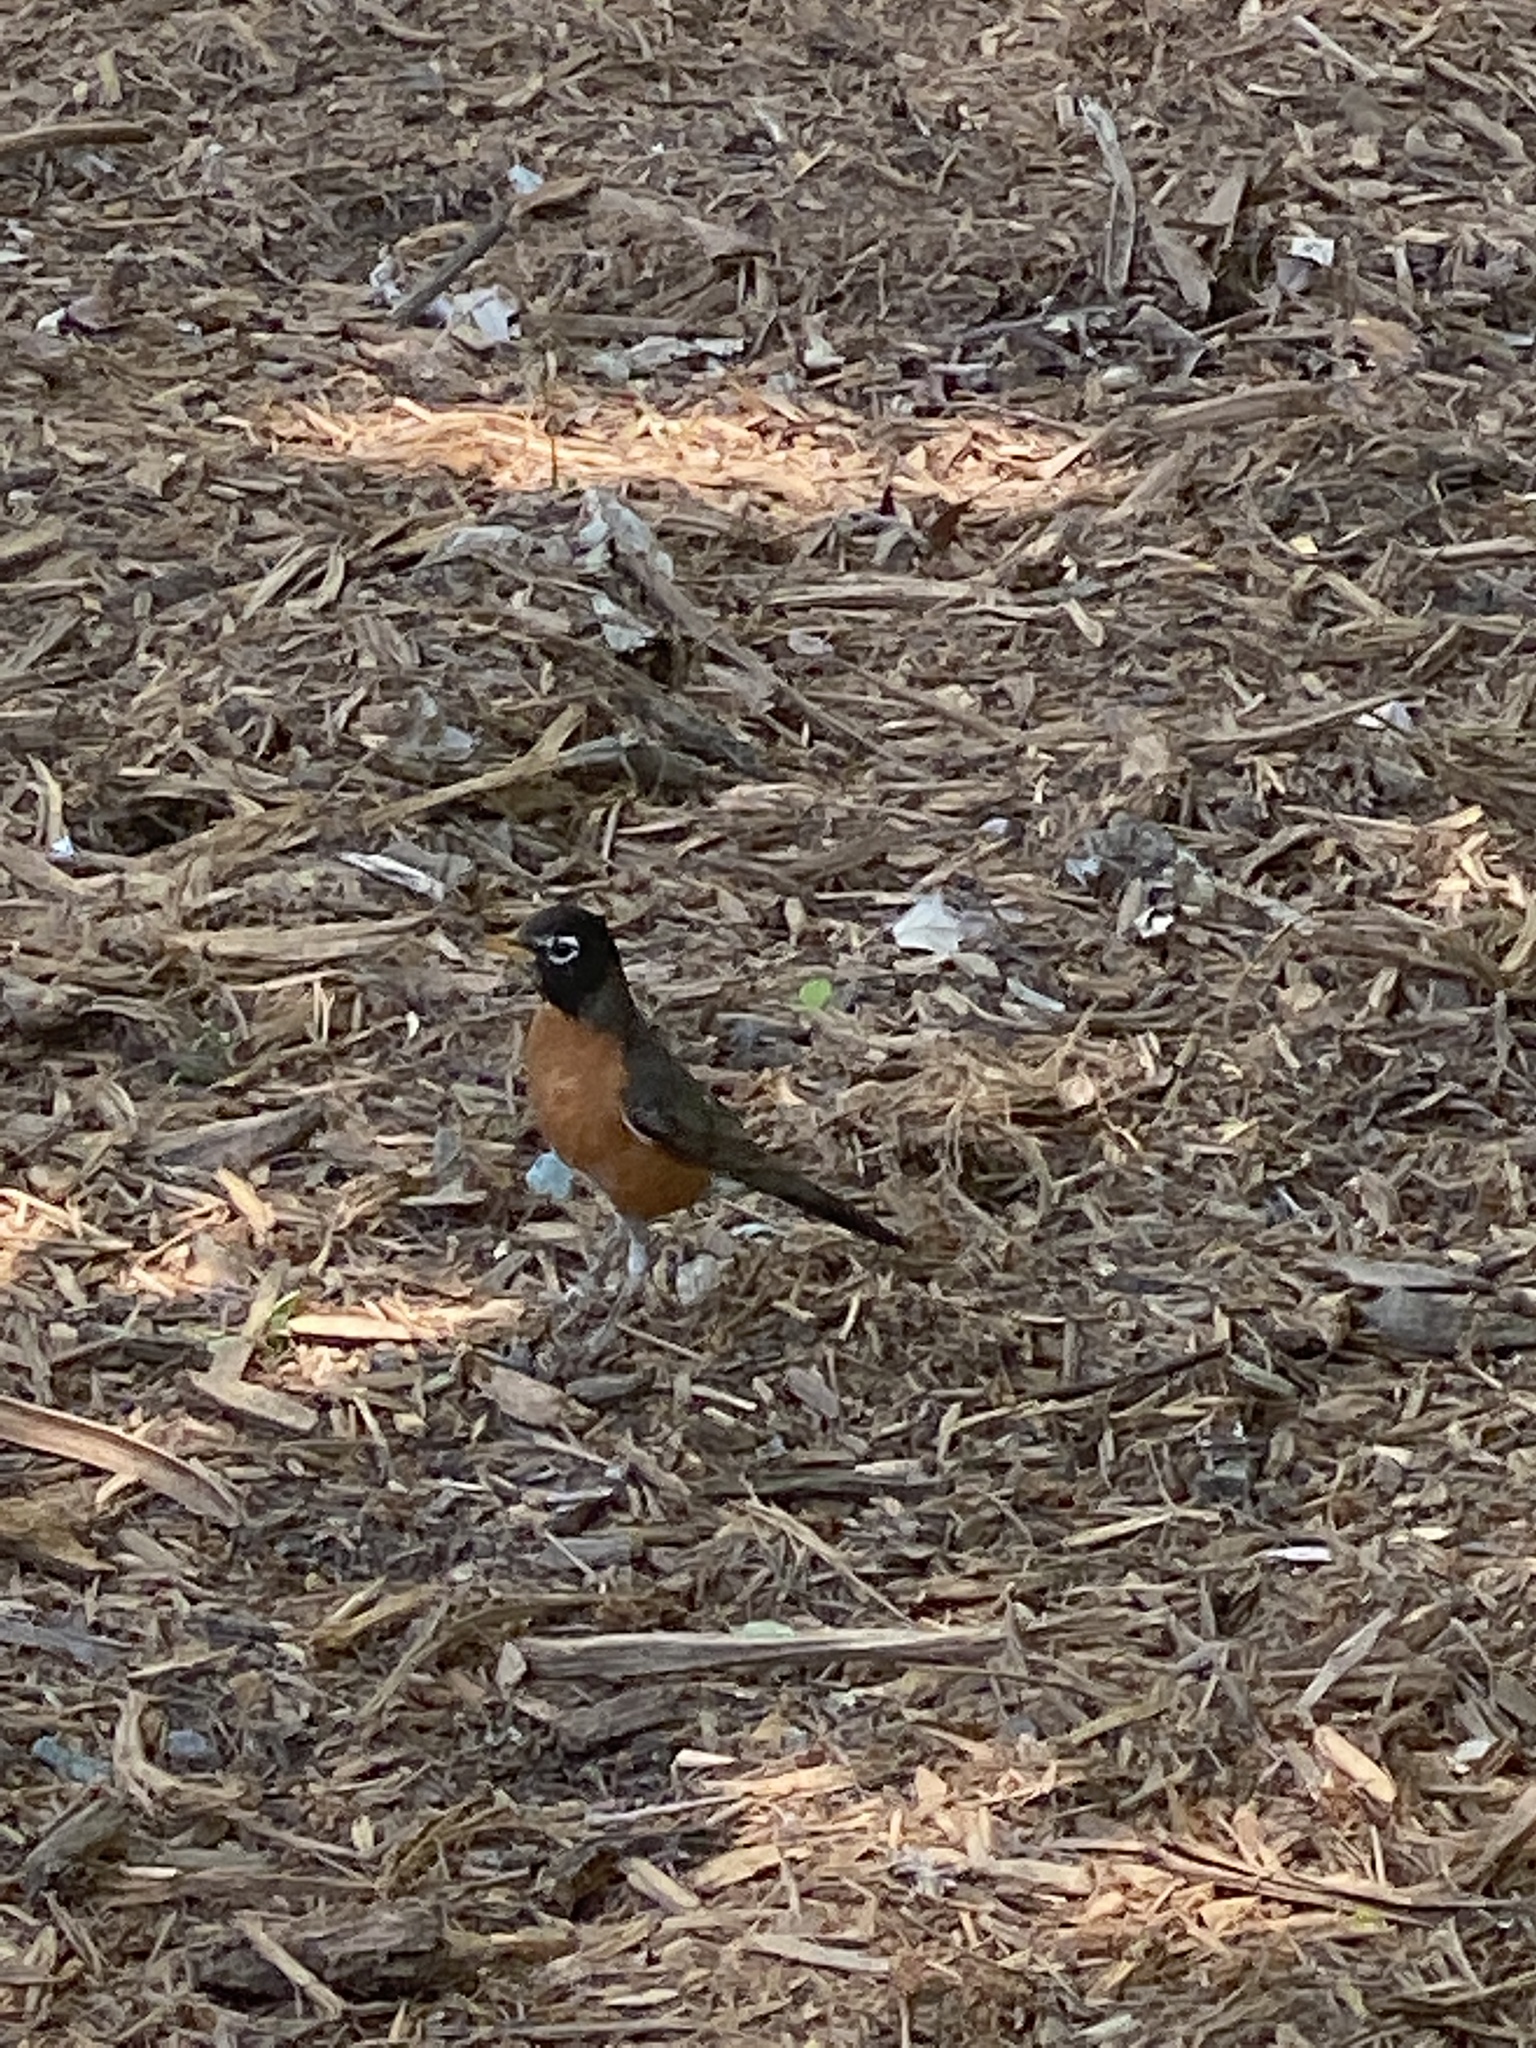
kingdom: Animalia
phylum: Chordata
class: Aves
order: Passeriformes
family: Turdidae
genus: Turdus
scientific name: Turdus migratorius
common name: American robin
